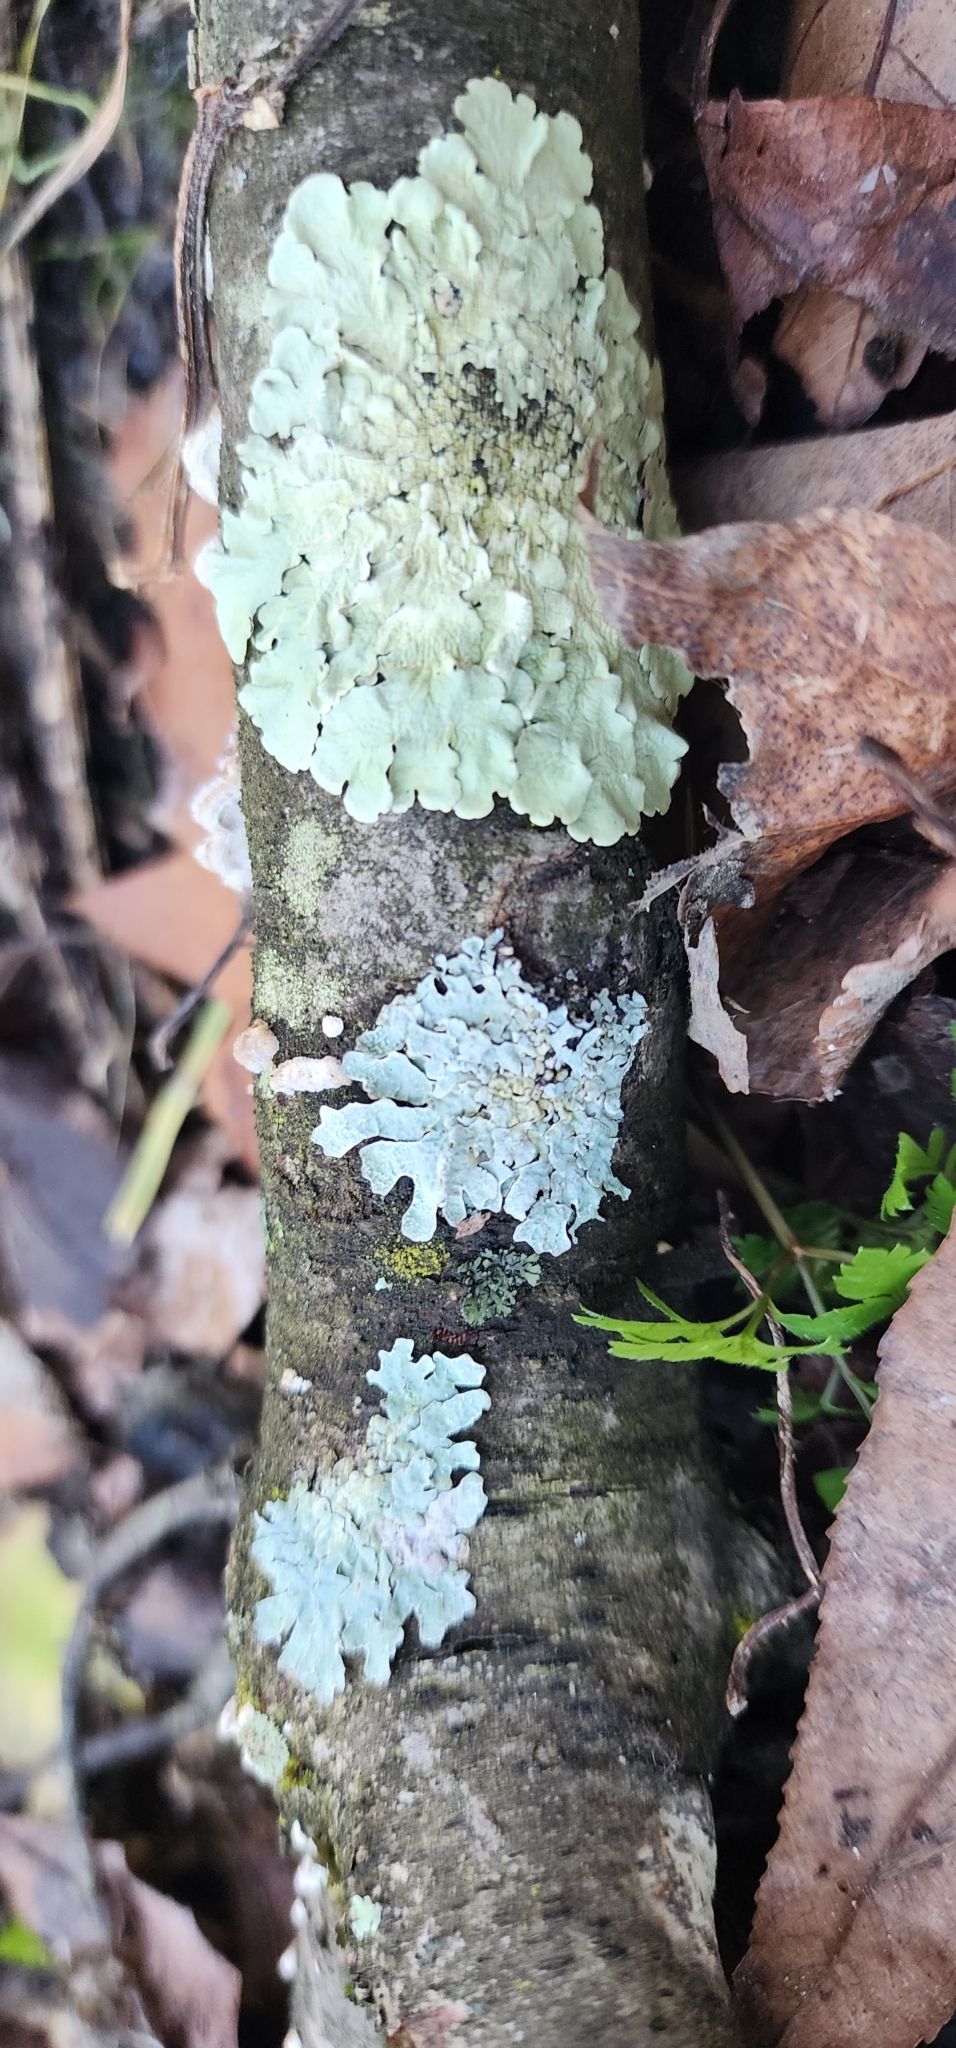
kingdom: Fungi
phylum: Ascomycota
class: Lecanoromycetes
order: Lecanorales
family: Parmeliaceae
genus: Flavoparmelia
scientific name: Flavoparmelia caperata
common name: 40-mile per hour lichen
